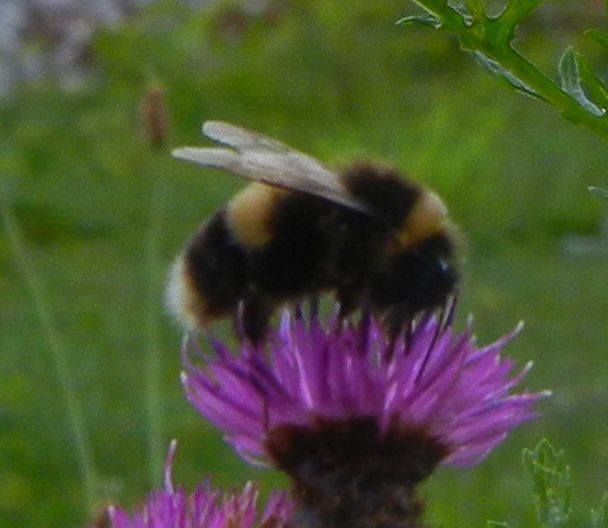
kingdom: Animalia
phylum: Arthropoda
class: Insecta
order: Hymenoptera
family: Apidae
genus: Bombus
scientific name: Bombus terrestris
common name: Buff-tailed bumblebee
